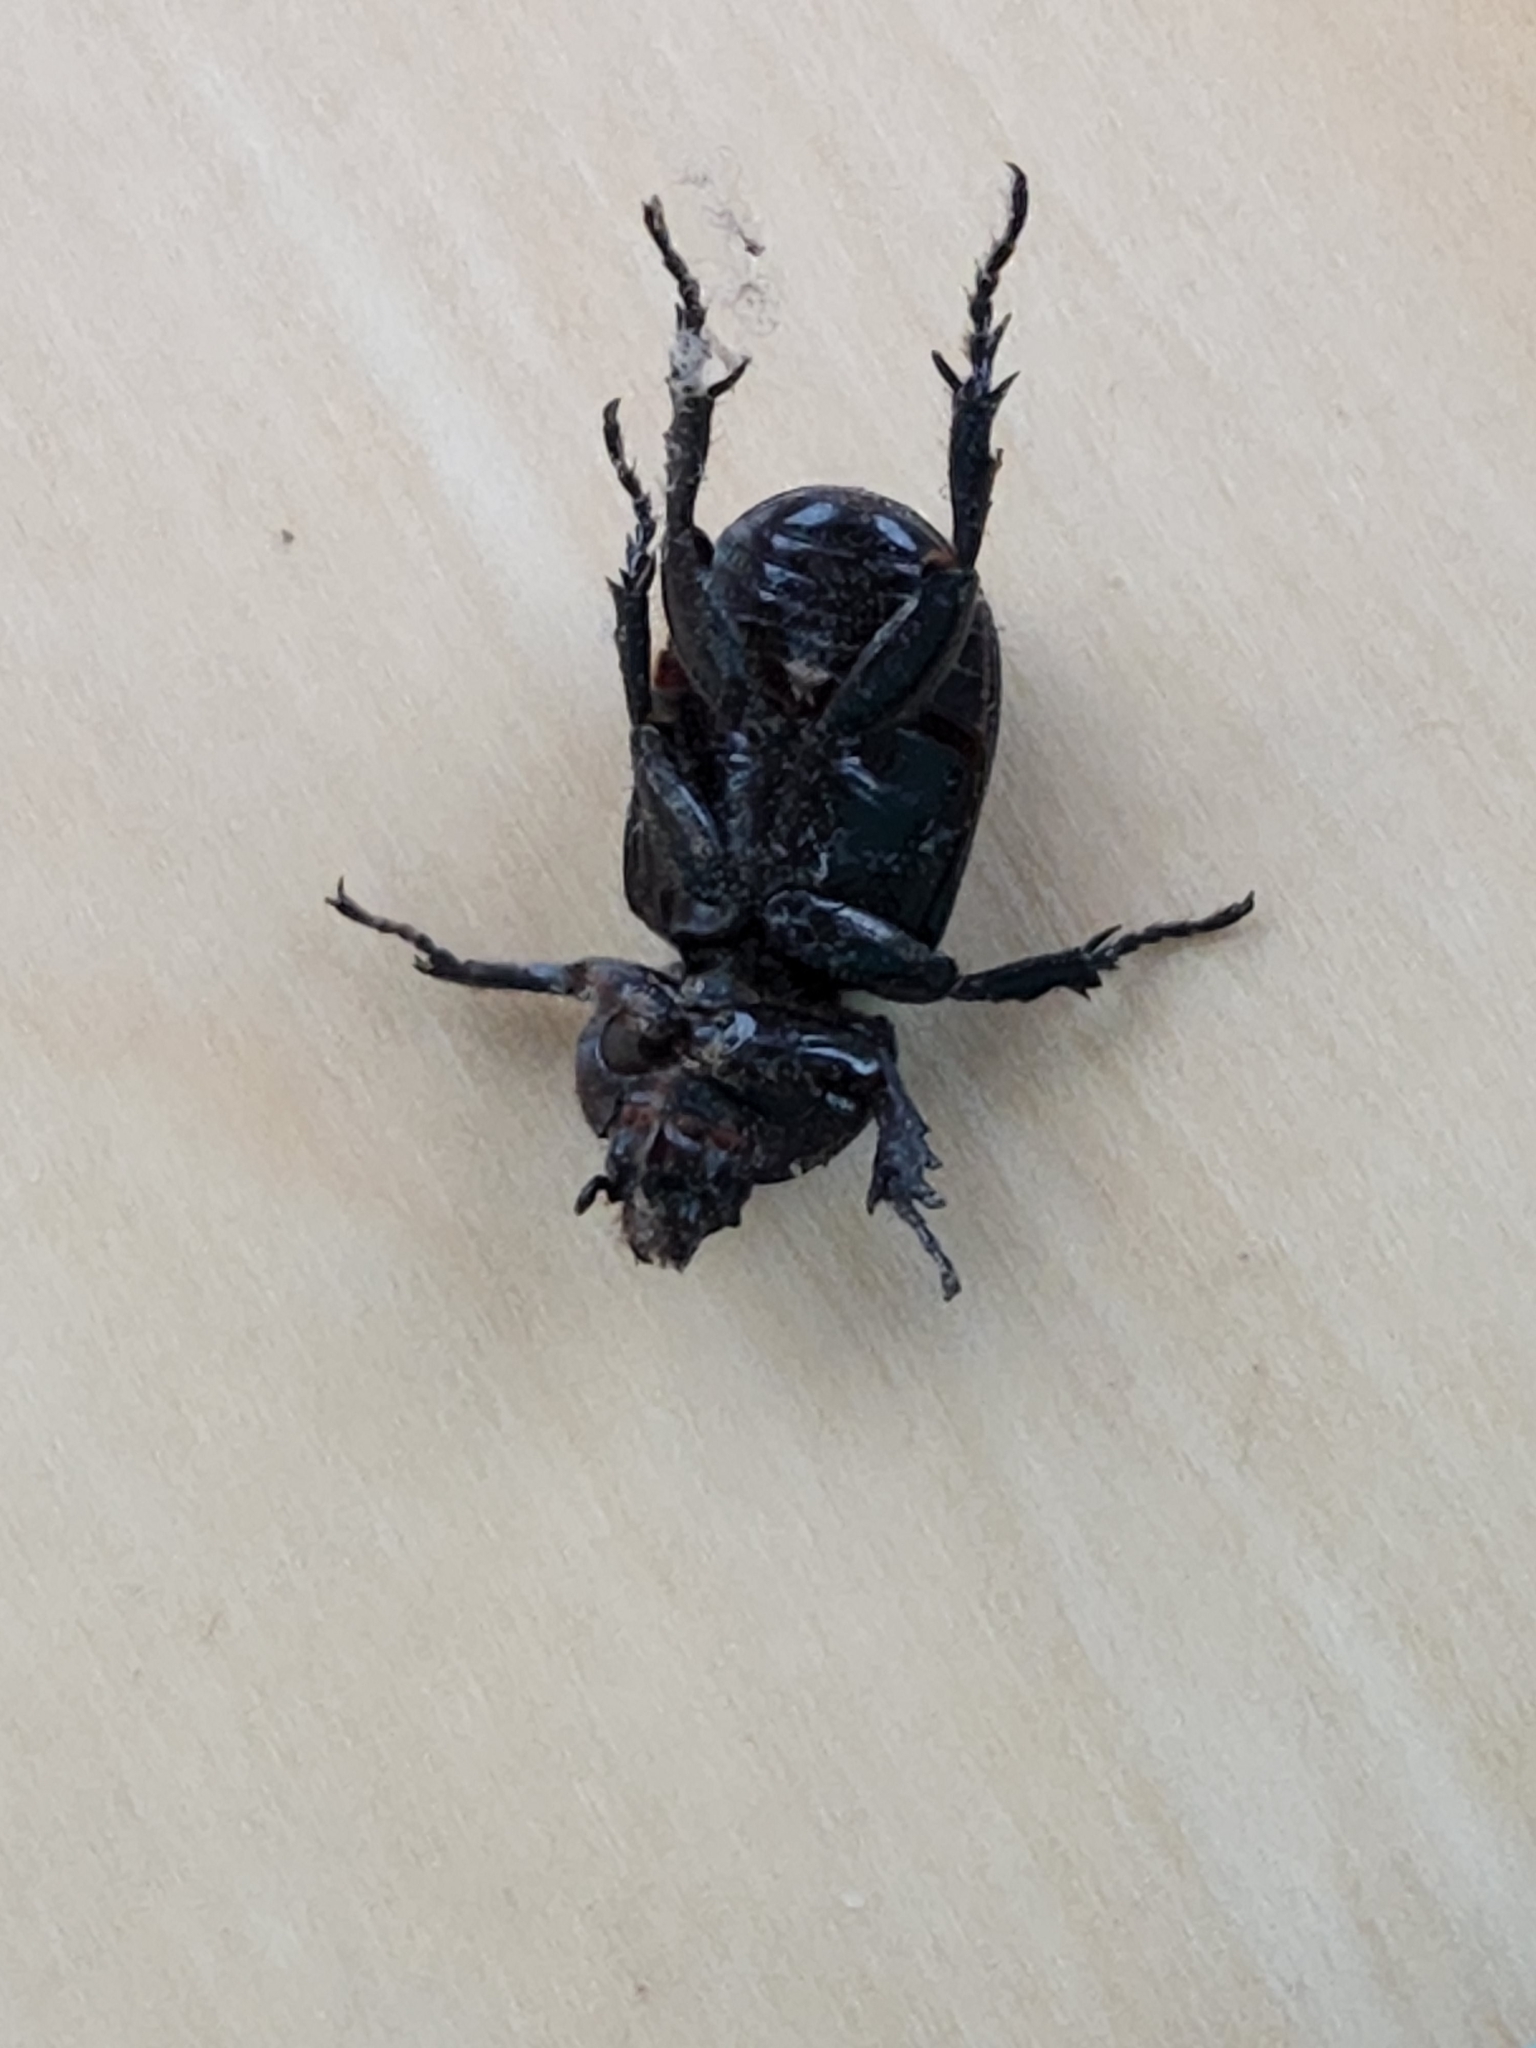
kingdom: Animalia
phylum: Arthropoda
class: Insecta
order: Coleoptera
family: Scarabaeidae
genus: Phileurus
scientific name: Phileurus valgus
